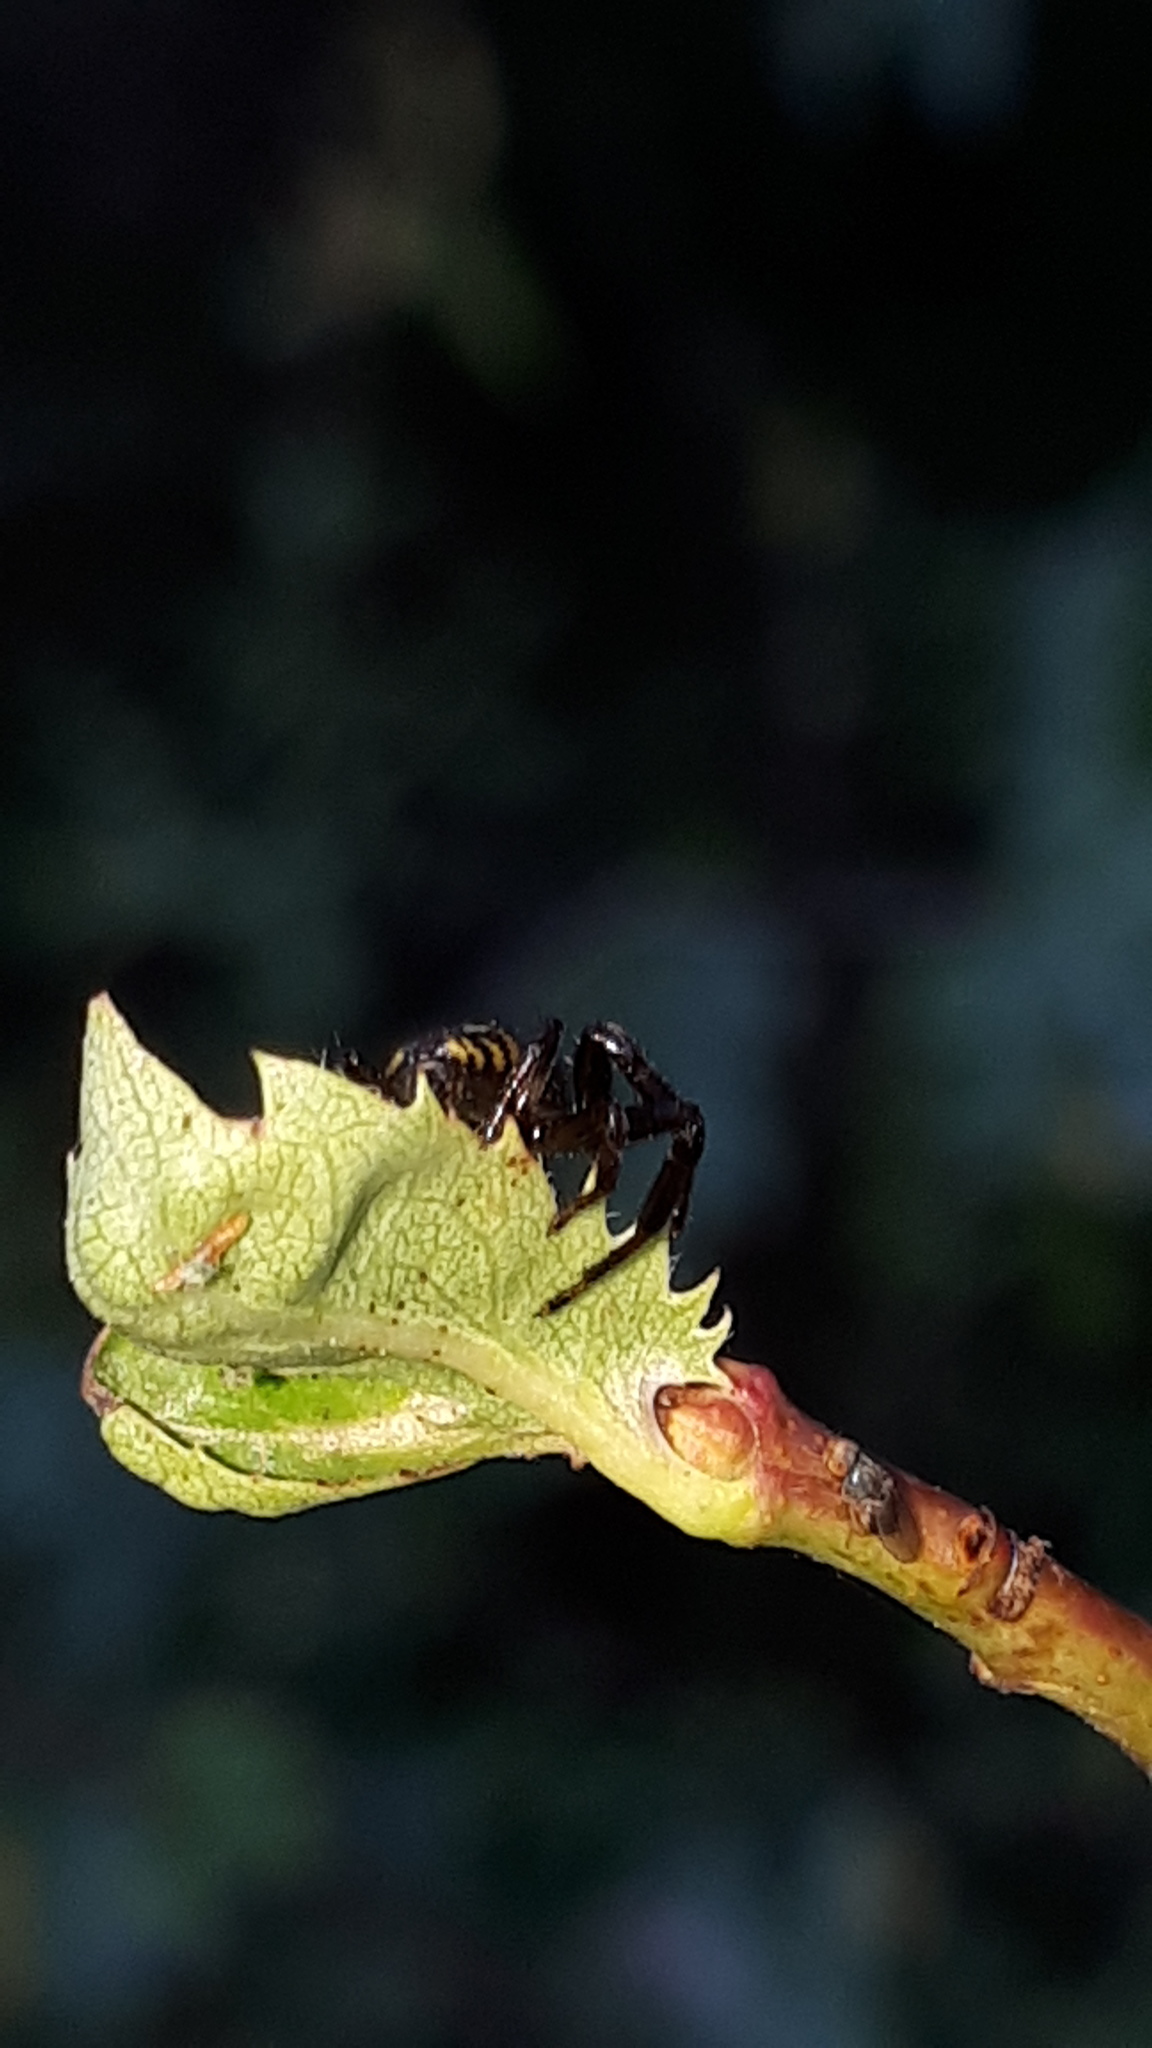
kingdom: Animalia
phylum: Arthropoda
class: Arachnida
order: Araneae
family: Thomisidae
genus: Synema
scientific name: Synema globosum
